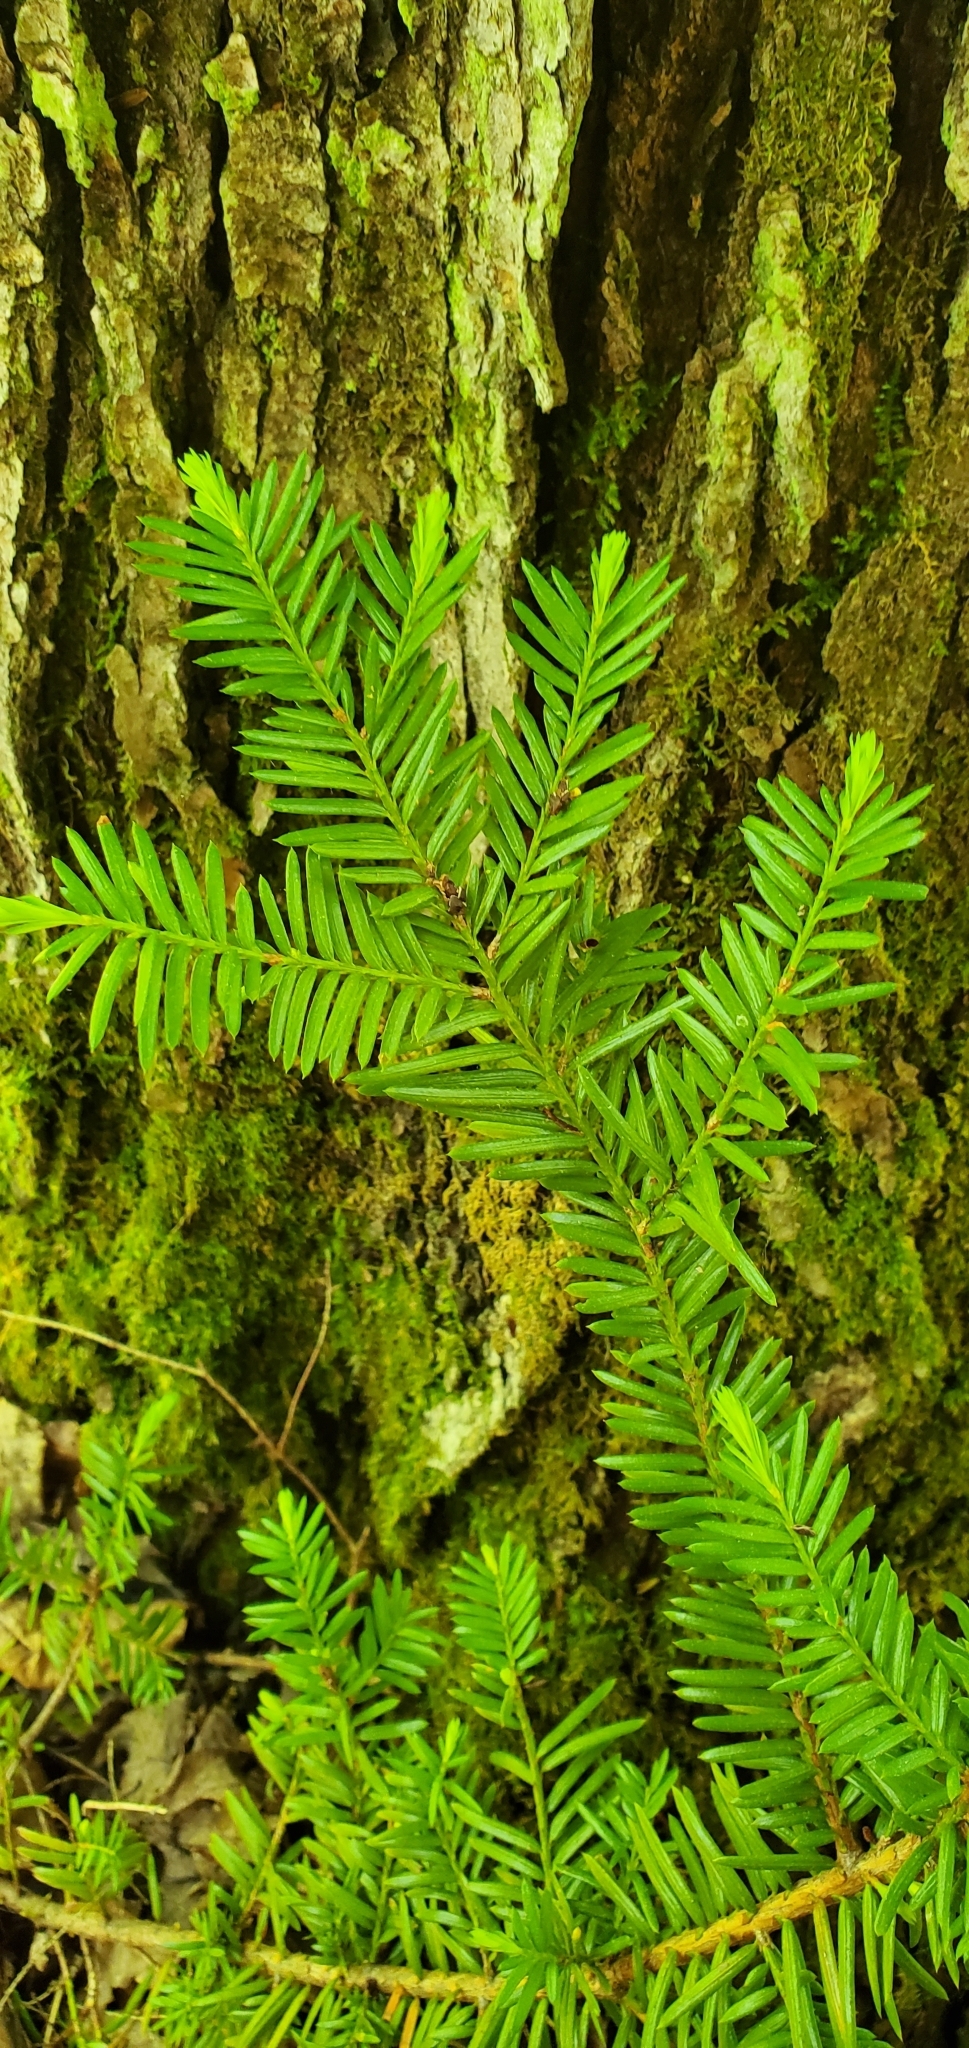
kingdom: Plantae
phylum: Tracheophyta
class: Pinopsida
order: Pinales
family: Taxaceae
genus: Taxus
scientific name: Taxus canadensis
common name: American yew
